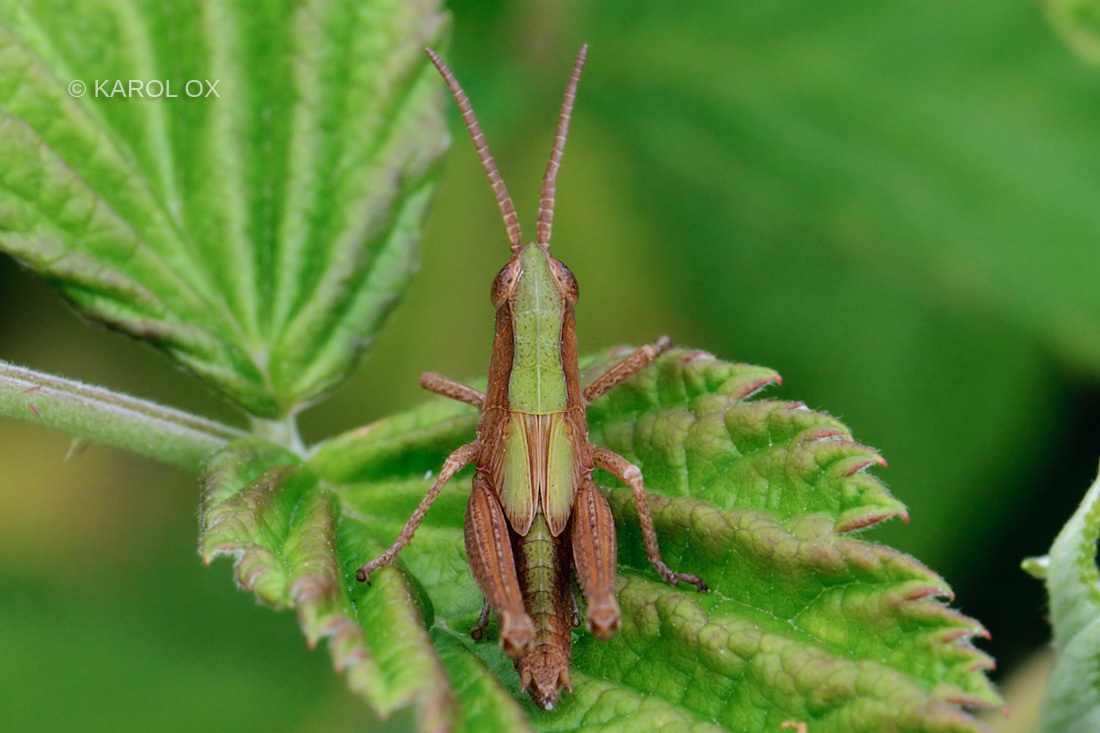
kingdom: Animalia
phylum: Arthropoda
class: Insecta
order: Orthoptera
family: Acrididae
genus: Chorthippus
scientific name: Chorthippus dorsatus
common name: Steppe grasshopper
